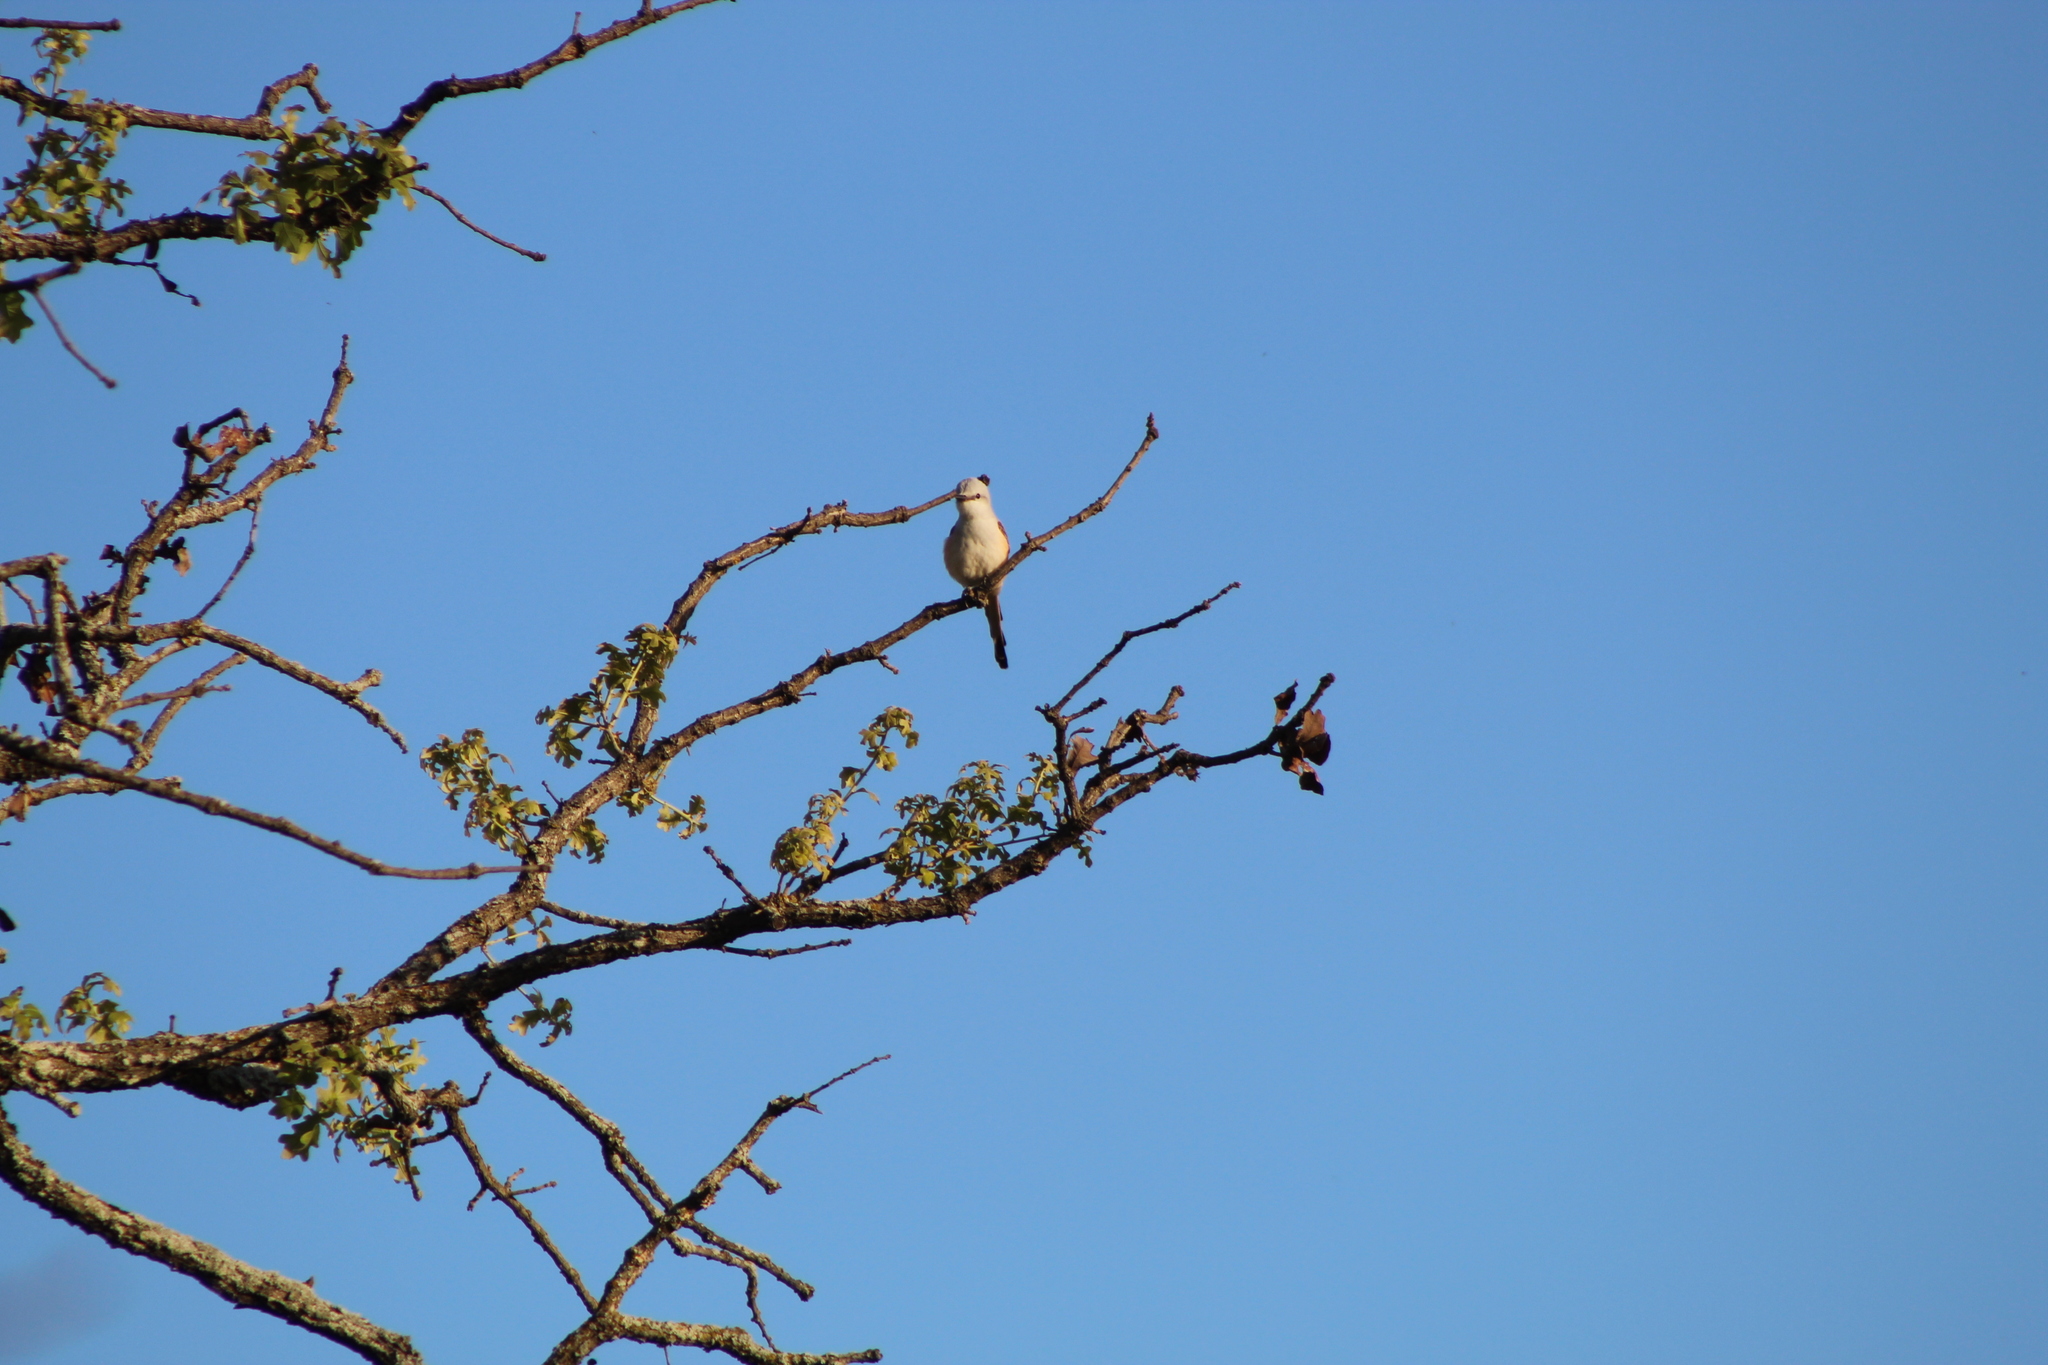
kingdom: Animalia
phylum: Chordata
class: Aves
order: Passeriformes
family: Tyrannidae
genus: Tyrannus
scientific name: Tyrannus forficatus
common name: Scissor-tailed flycatcher
